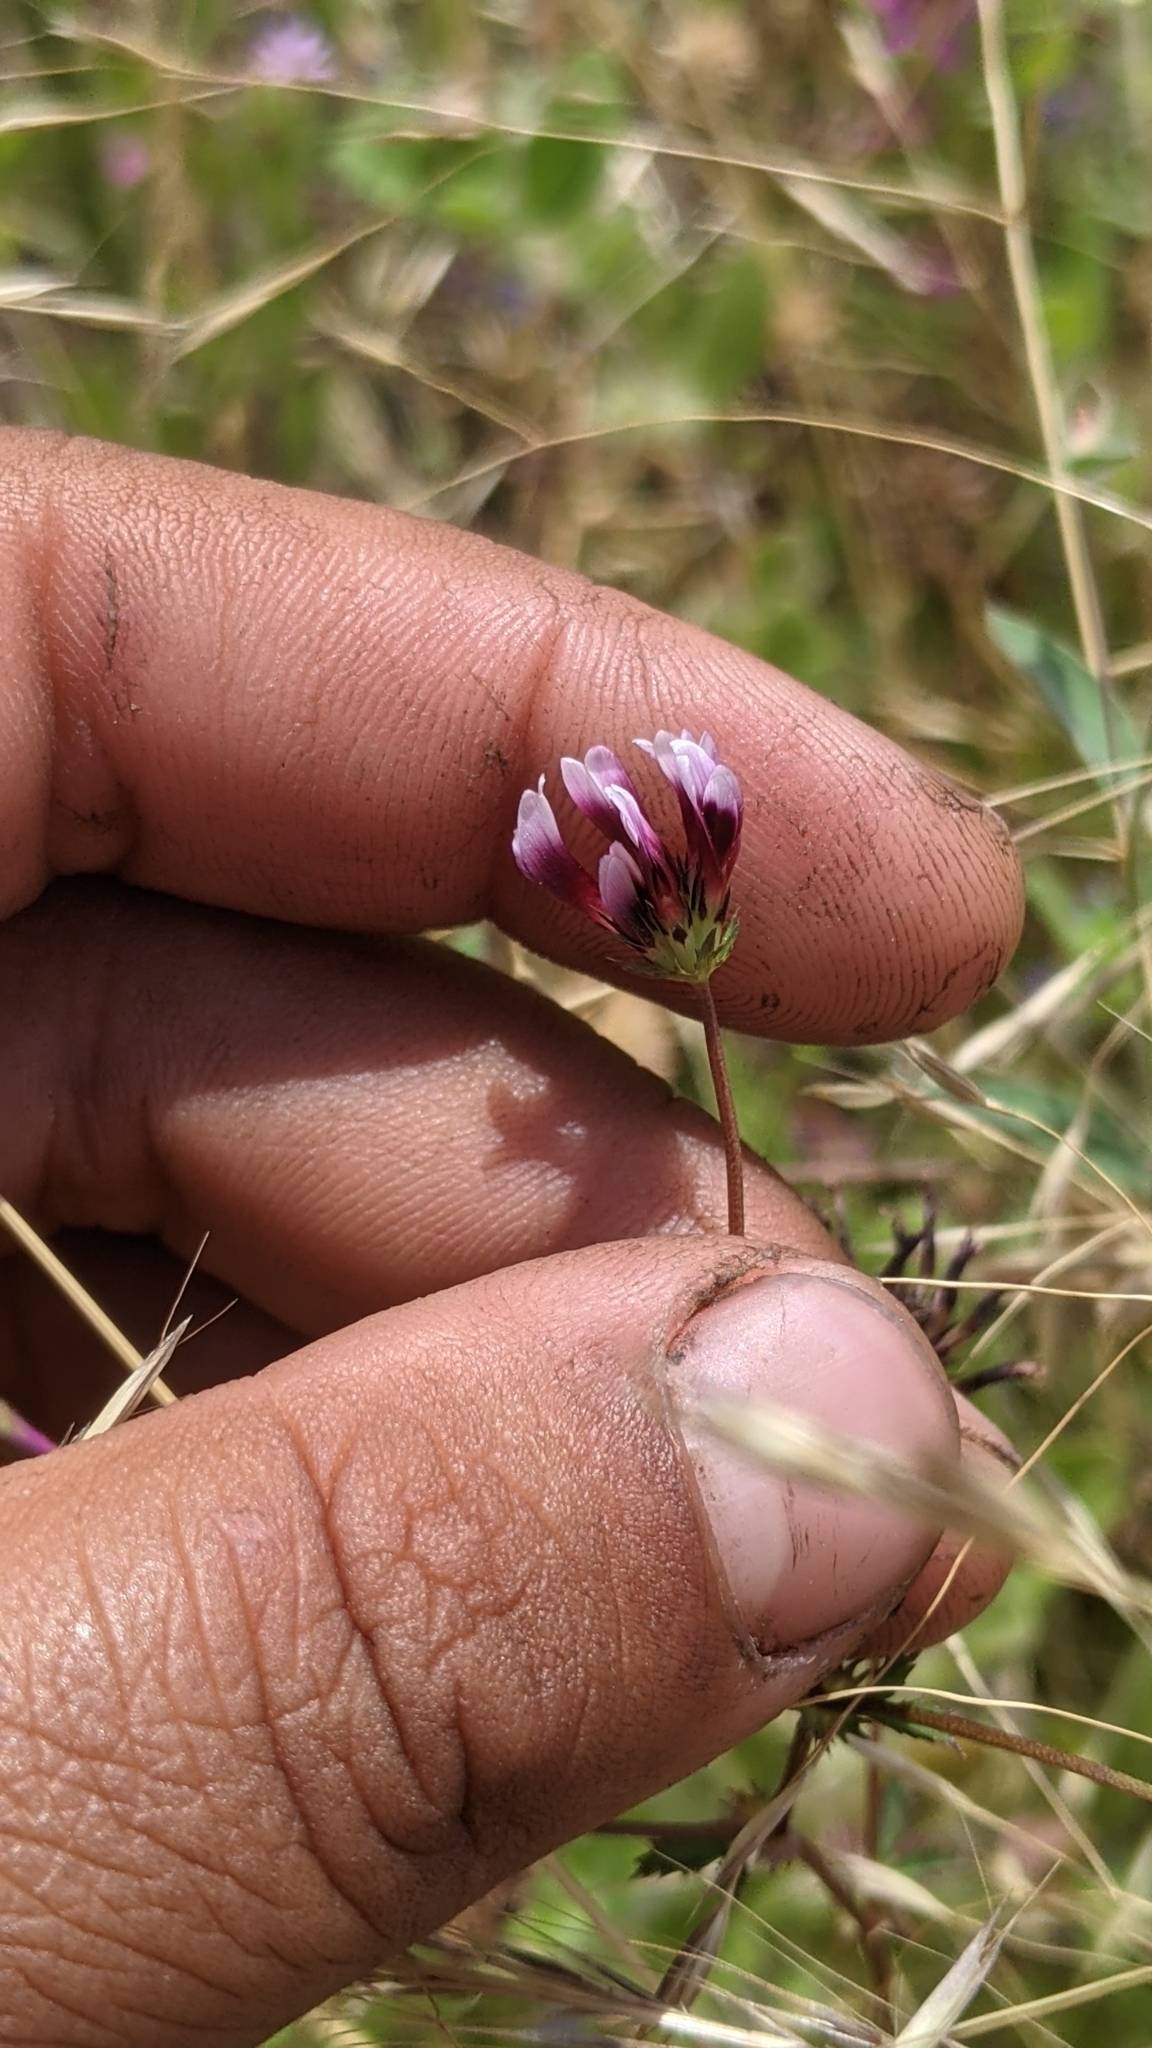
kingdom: Plantae
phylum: Tracheophyta
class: Magnoliopsida
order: Fabales
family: Fabaceae
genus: Trifolium
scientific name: Trifolium variegatum
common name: Whitetip clover
